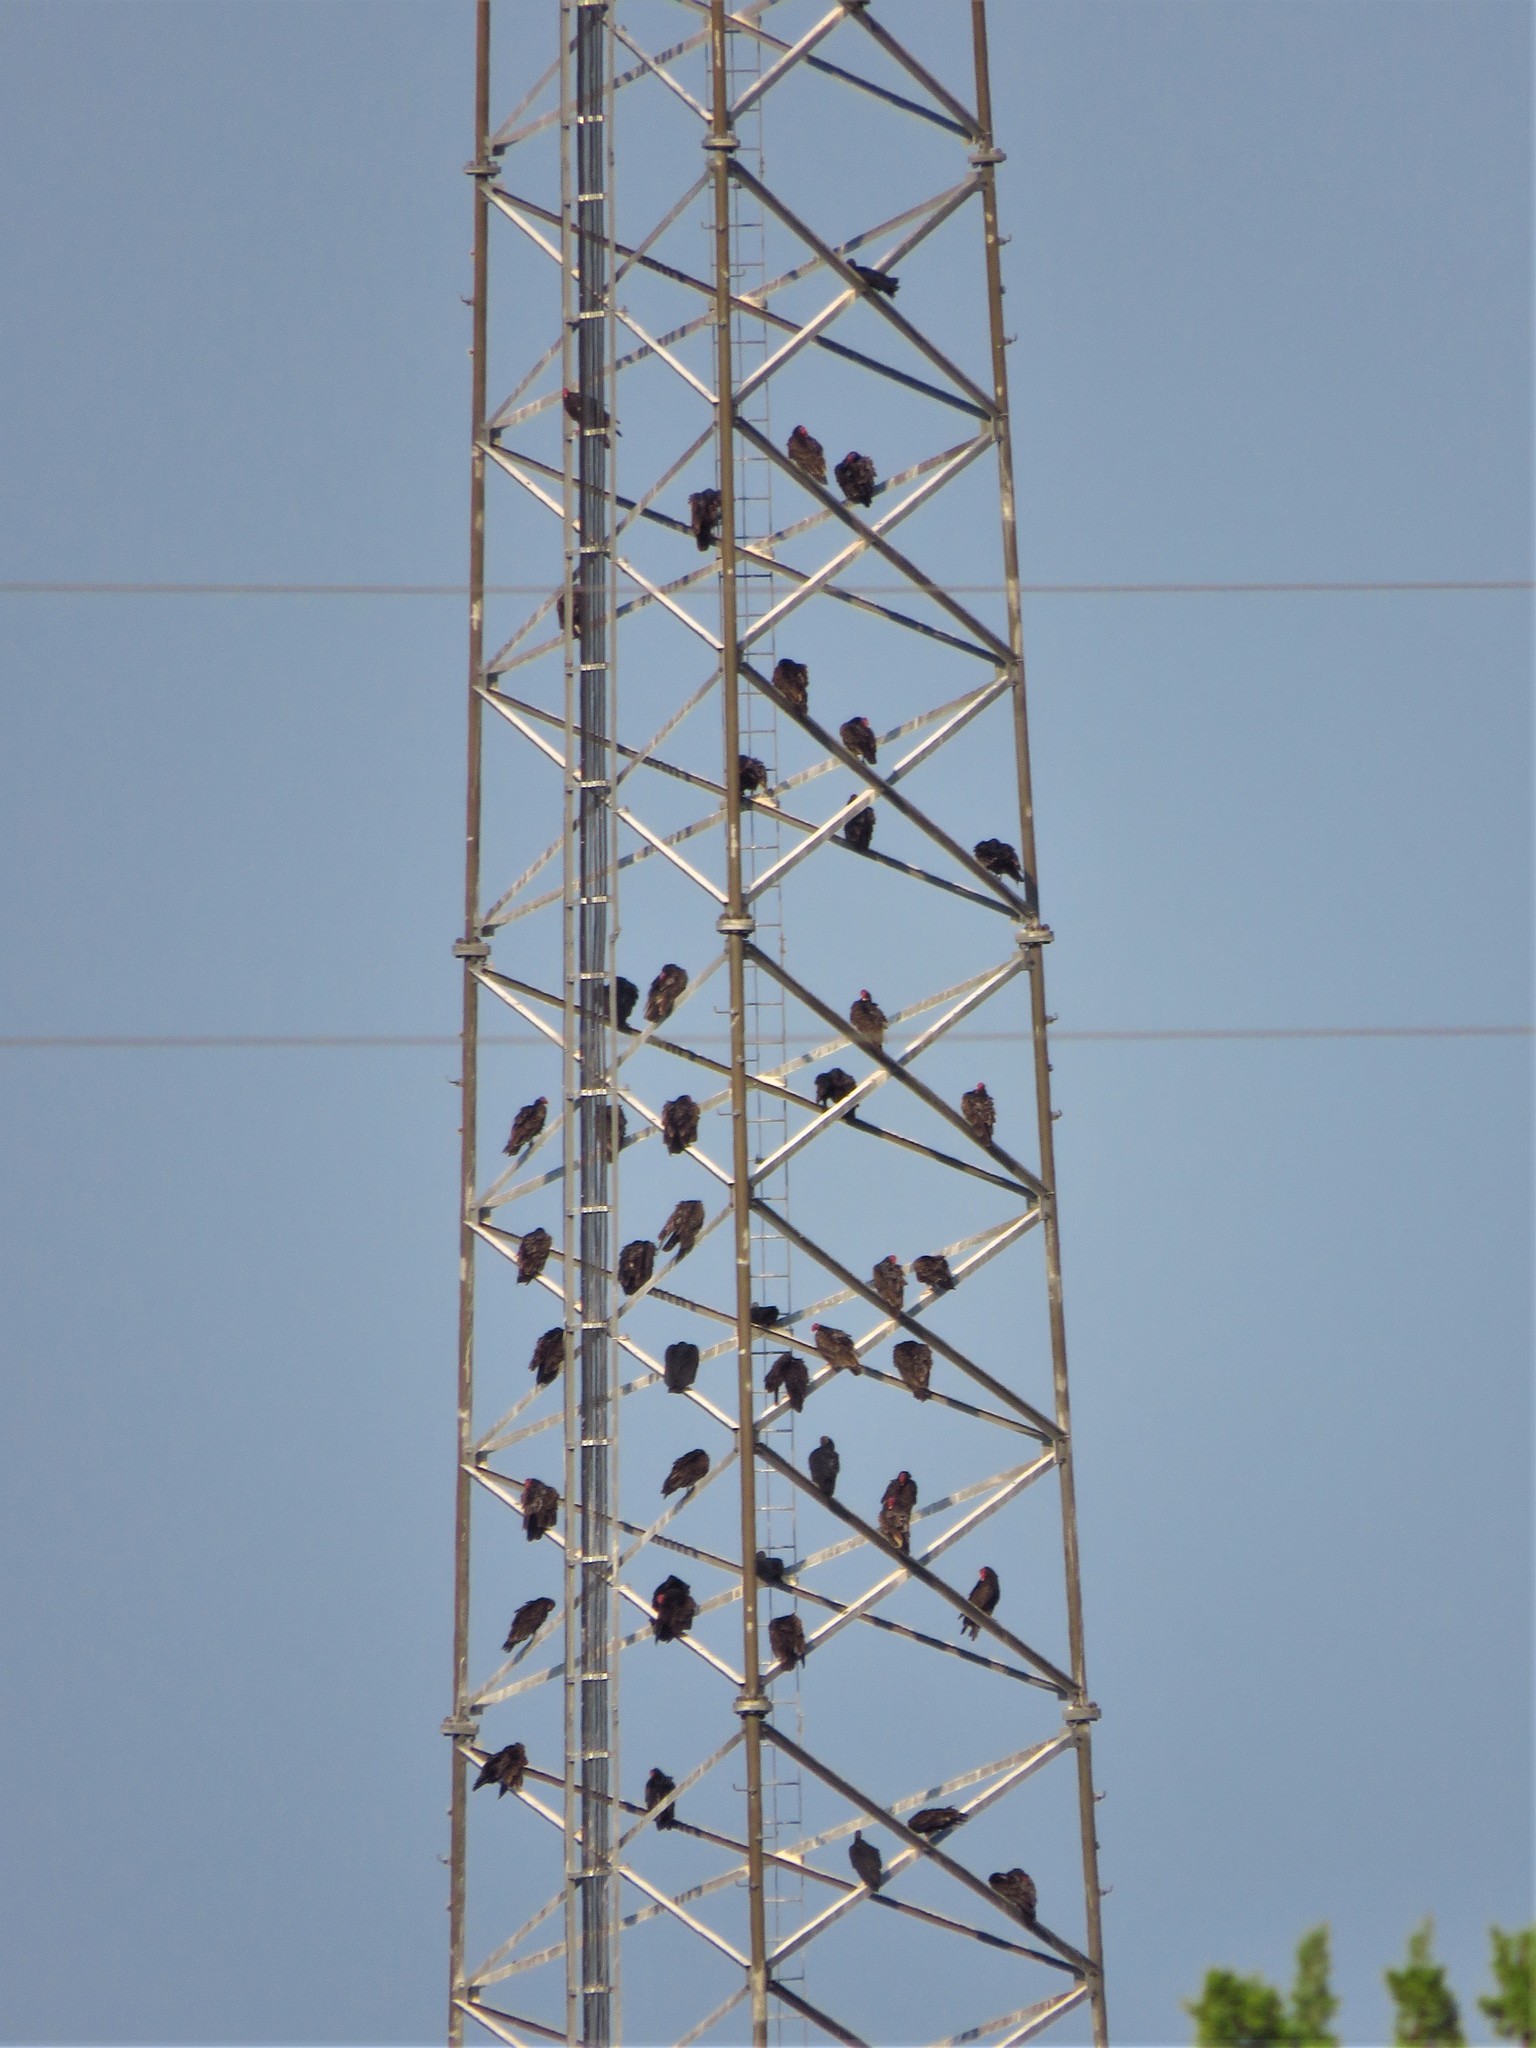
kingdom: Animalia
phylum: Chordata
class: Aves
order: Accipitriformes
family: Cathartidae
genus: Cathartes
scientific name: Cathartes aura
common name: Turkey vulture
